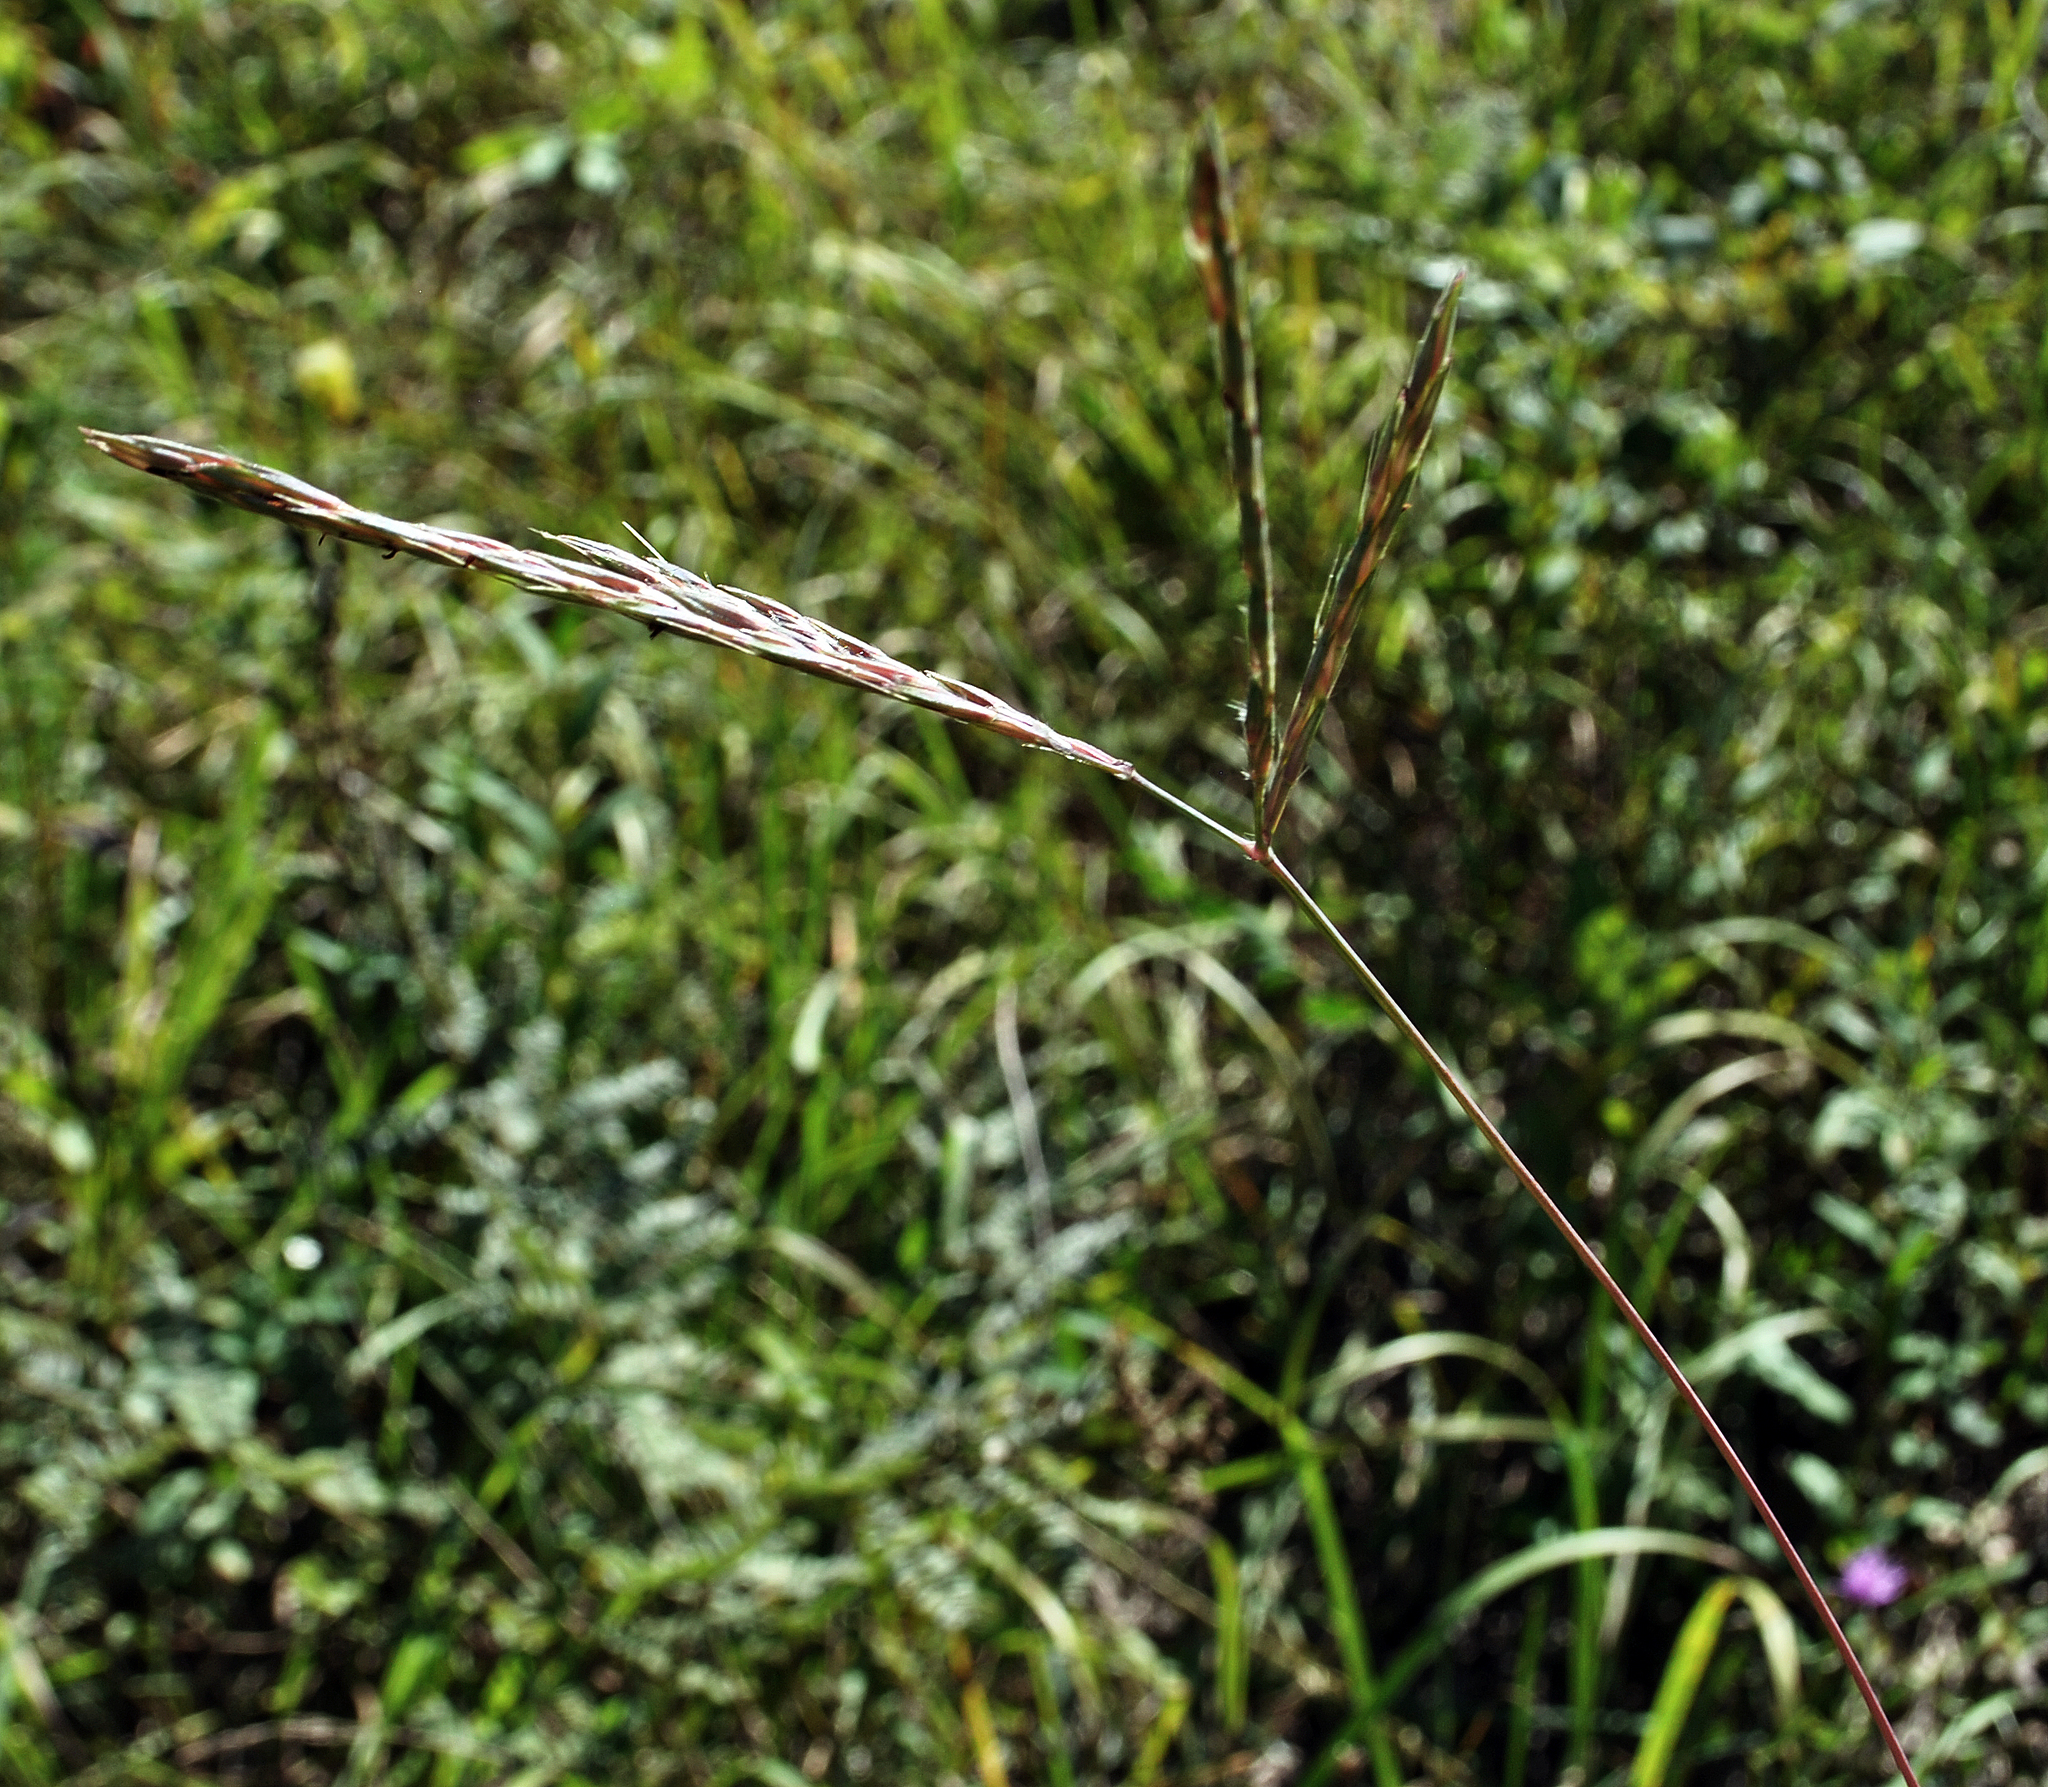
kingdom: Plantae
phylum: Tracheophyta
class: Liliopsida
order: Poales
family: Poaceae
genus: Andropogon
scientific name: Andropogon gerardi
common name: Big bluestem
